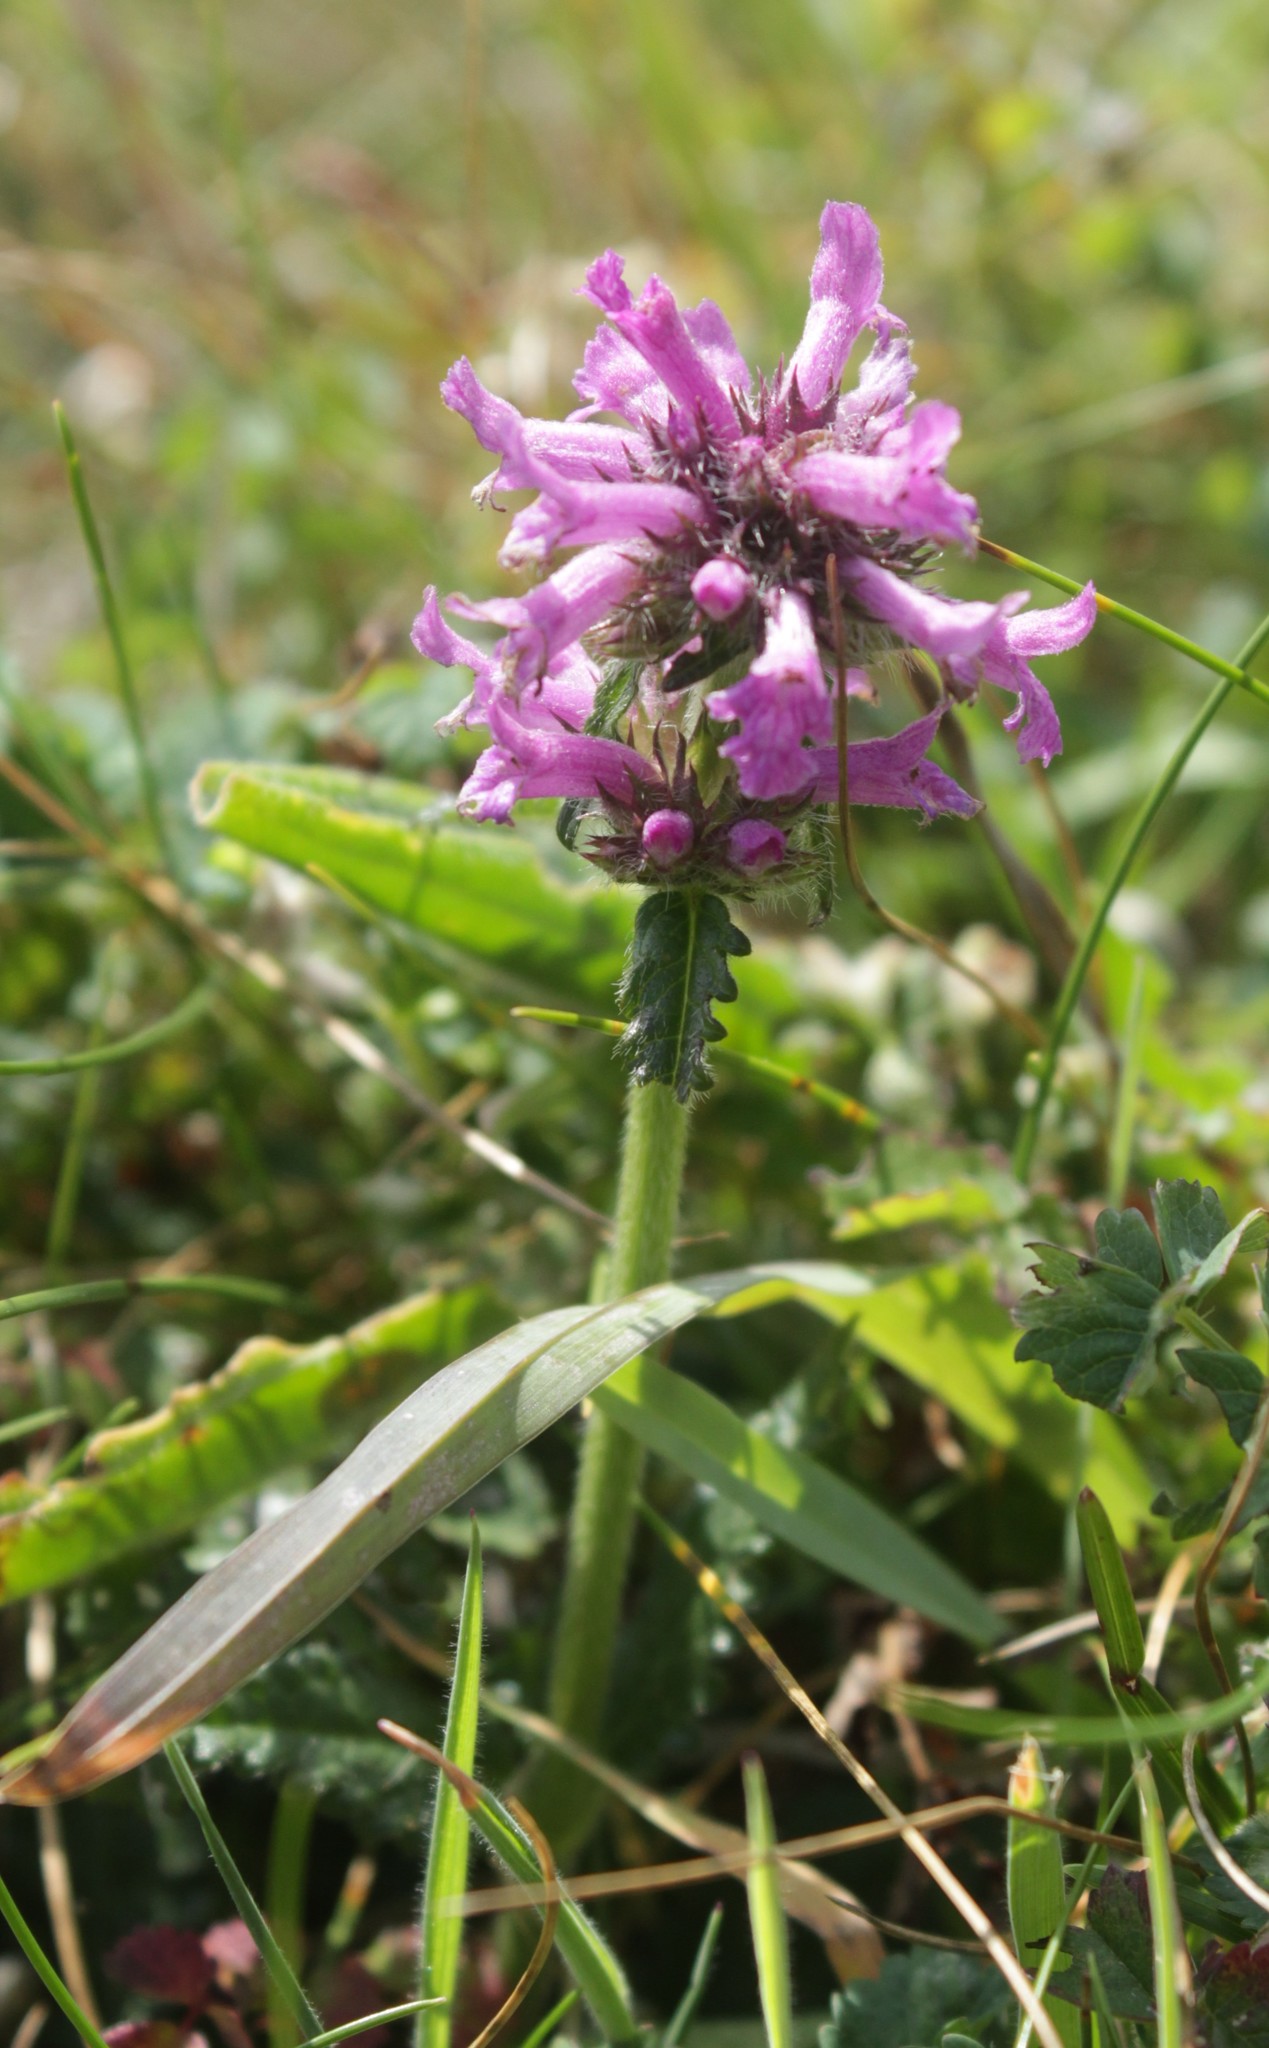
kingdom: Plantae
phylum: Tracheophyta
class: Magnoliopsida
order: Lamiales
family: Lamiaceae
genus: Betonica
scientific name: Betonica officinalis
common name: Bishop's-wort
